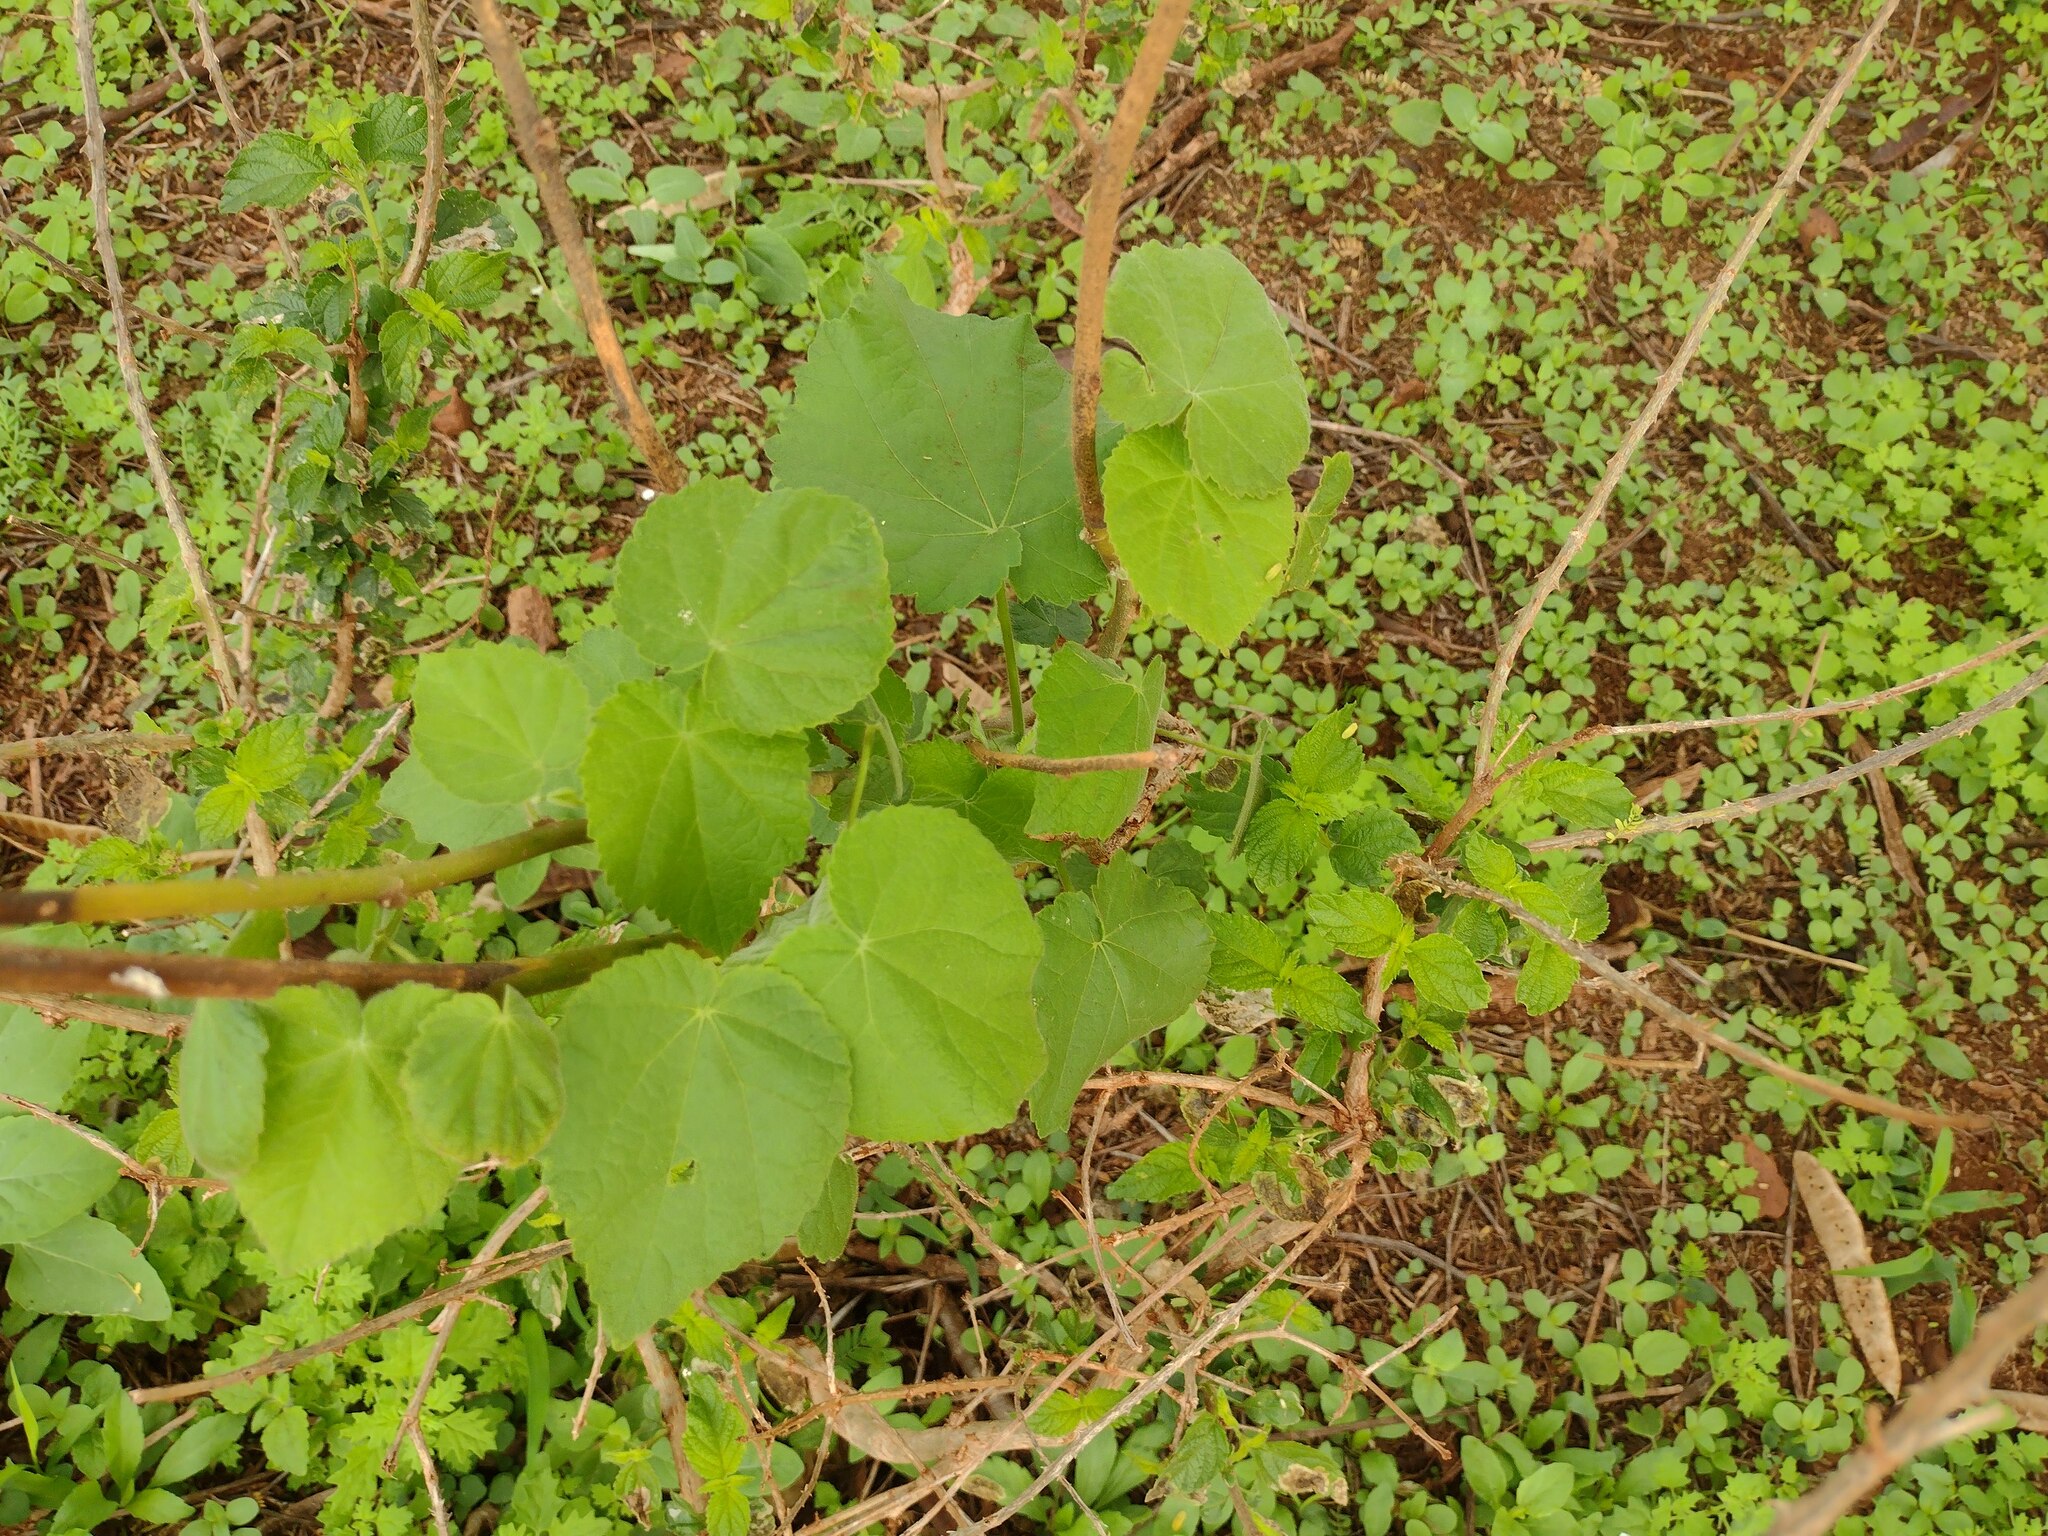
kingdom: Plantae
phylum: Tracheophyta
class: Magnoliopsida
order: Malvales
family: Malvaceae
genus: Abutilon
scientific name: Abutilon grandifolium
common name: Hairy abutilon
